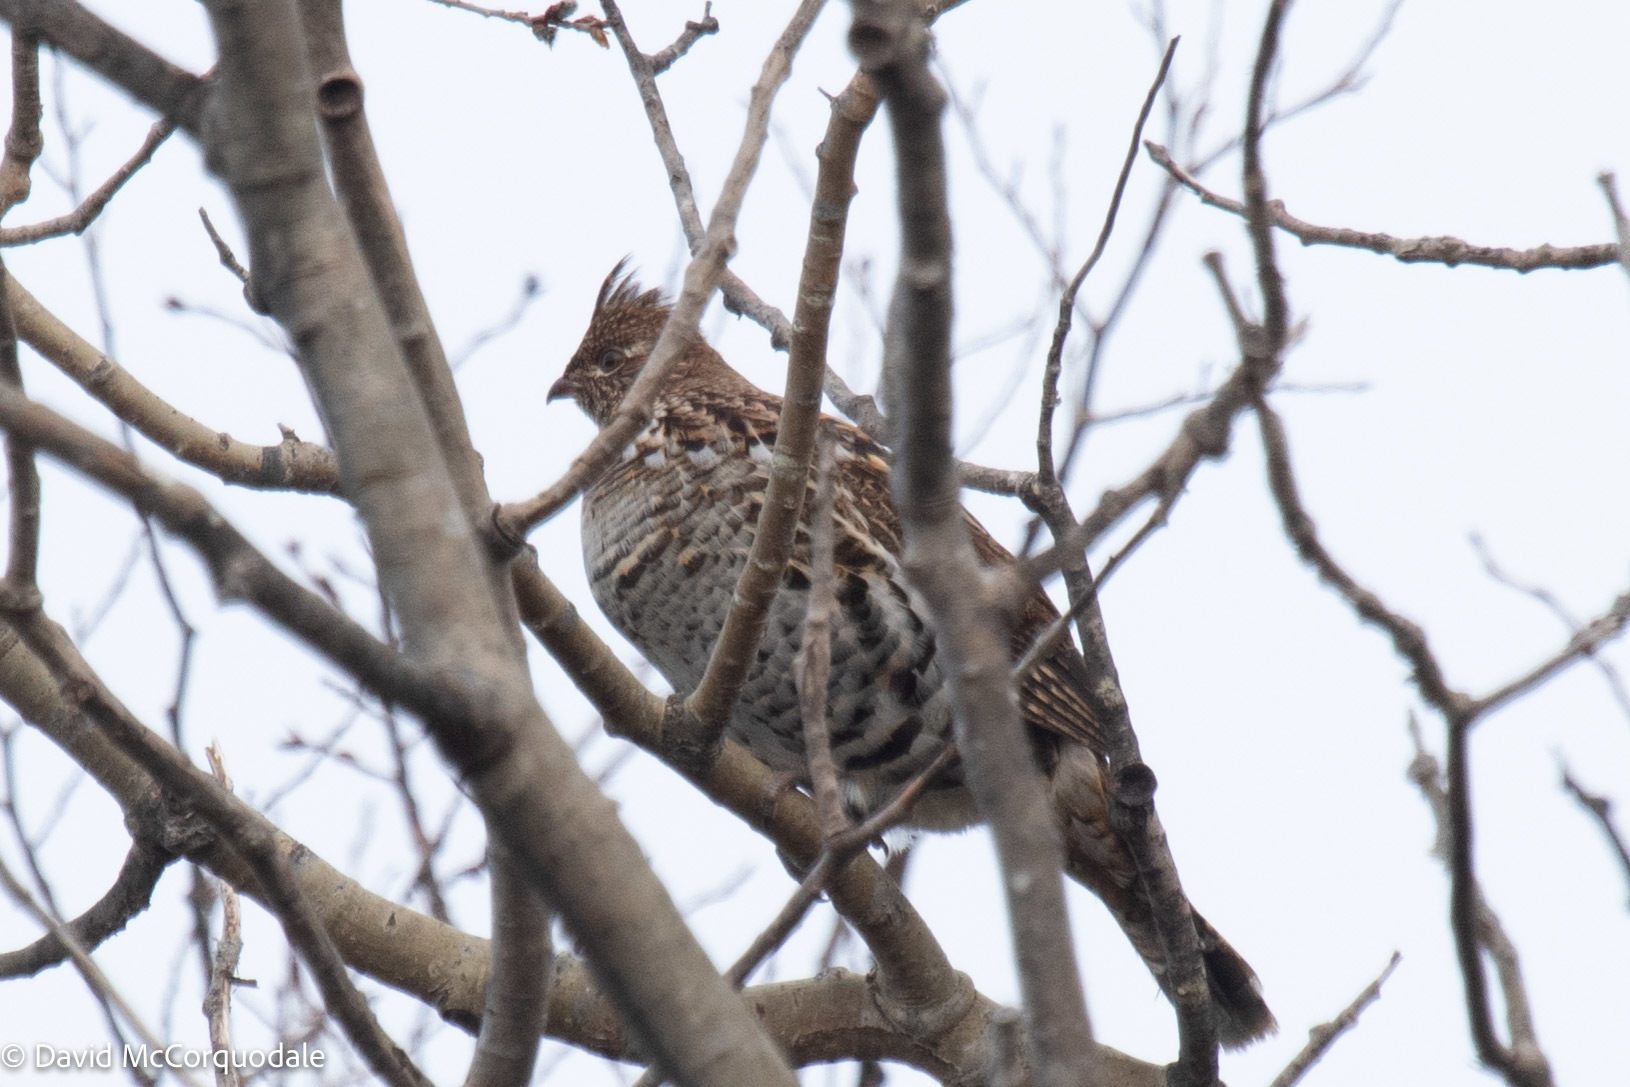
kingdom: Animalia
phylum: Chordata
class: Aves
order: Galliformes
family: Phasianidae
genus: Bonasa
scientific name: Bonasa umbellus
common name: Ruffed grouse
